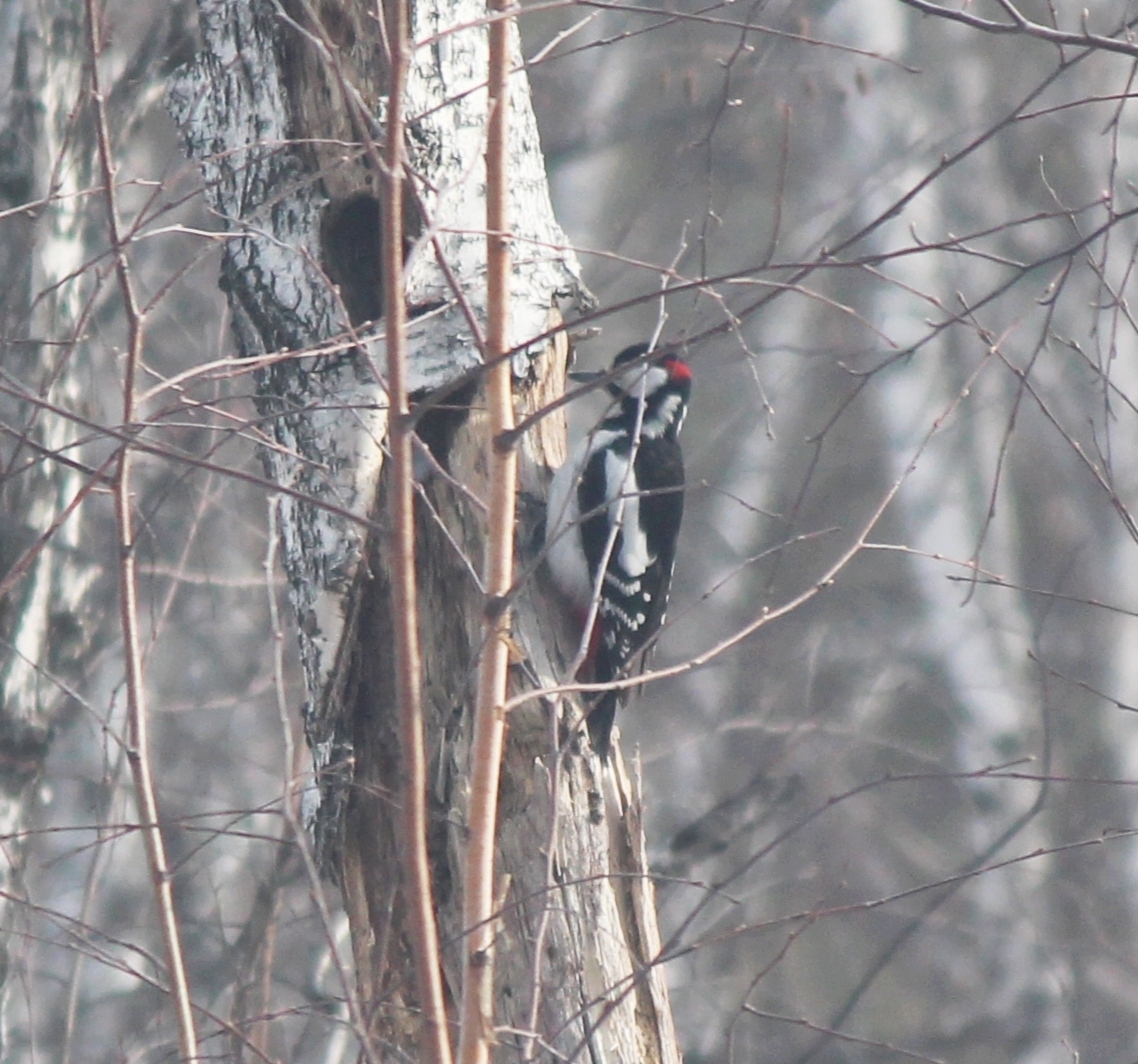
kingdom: Animalia
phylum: Chordata
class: Aves
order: Piciformes
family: Picidae
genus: Dendrocopos
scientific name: Dendrocopos major
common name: Great spotted woodpecker
